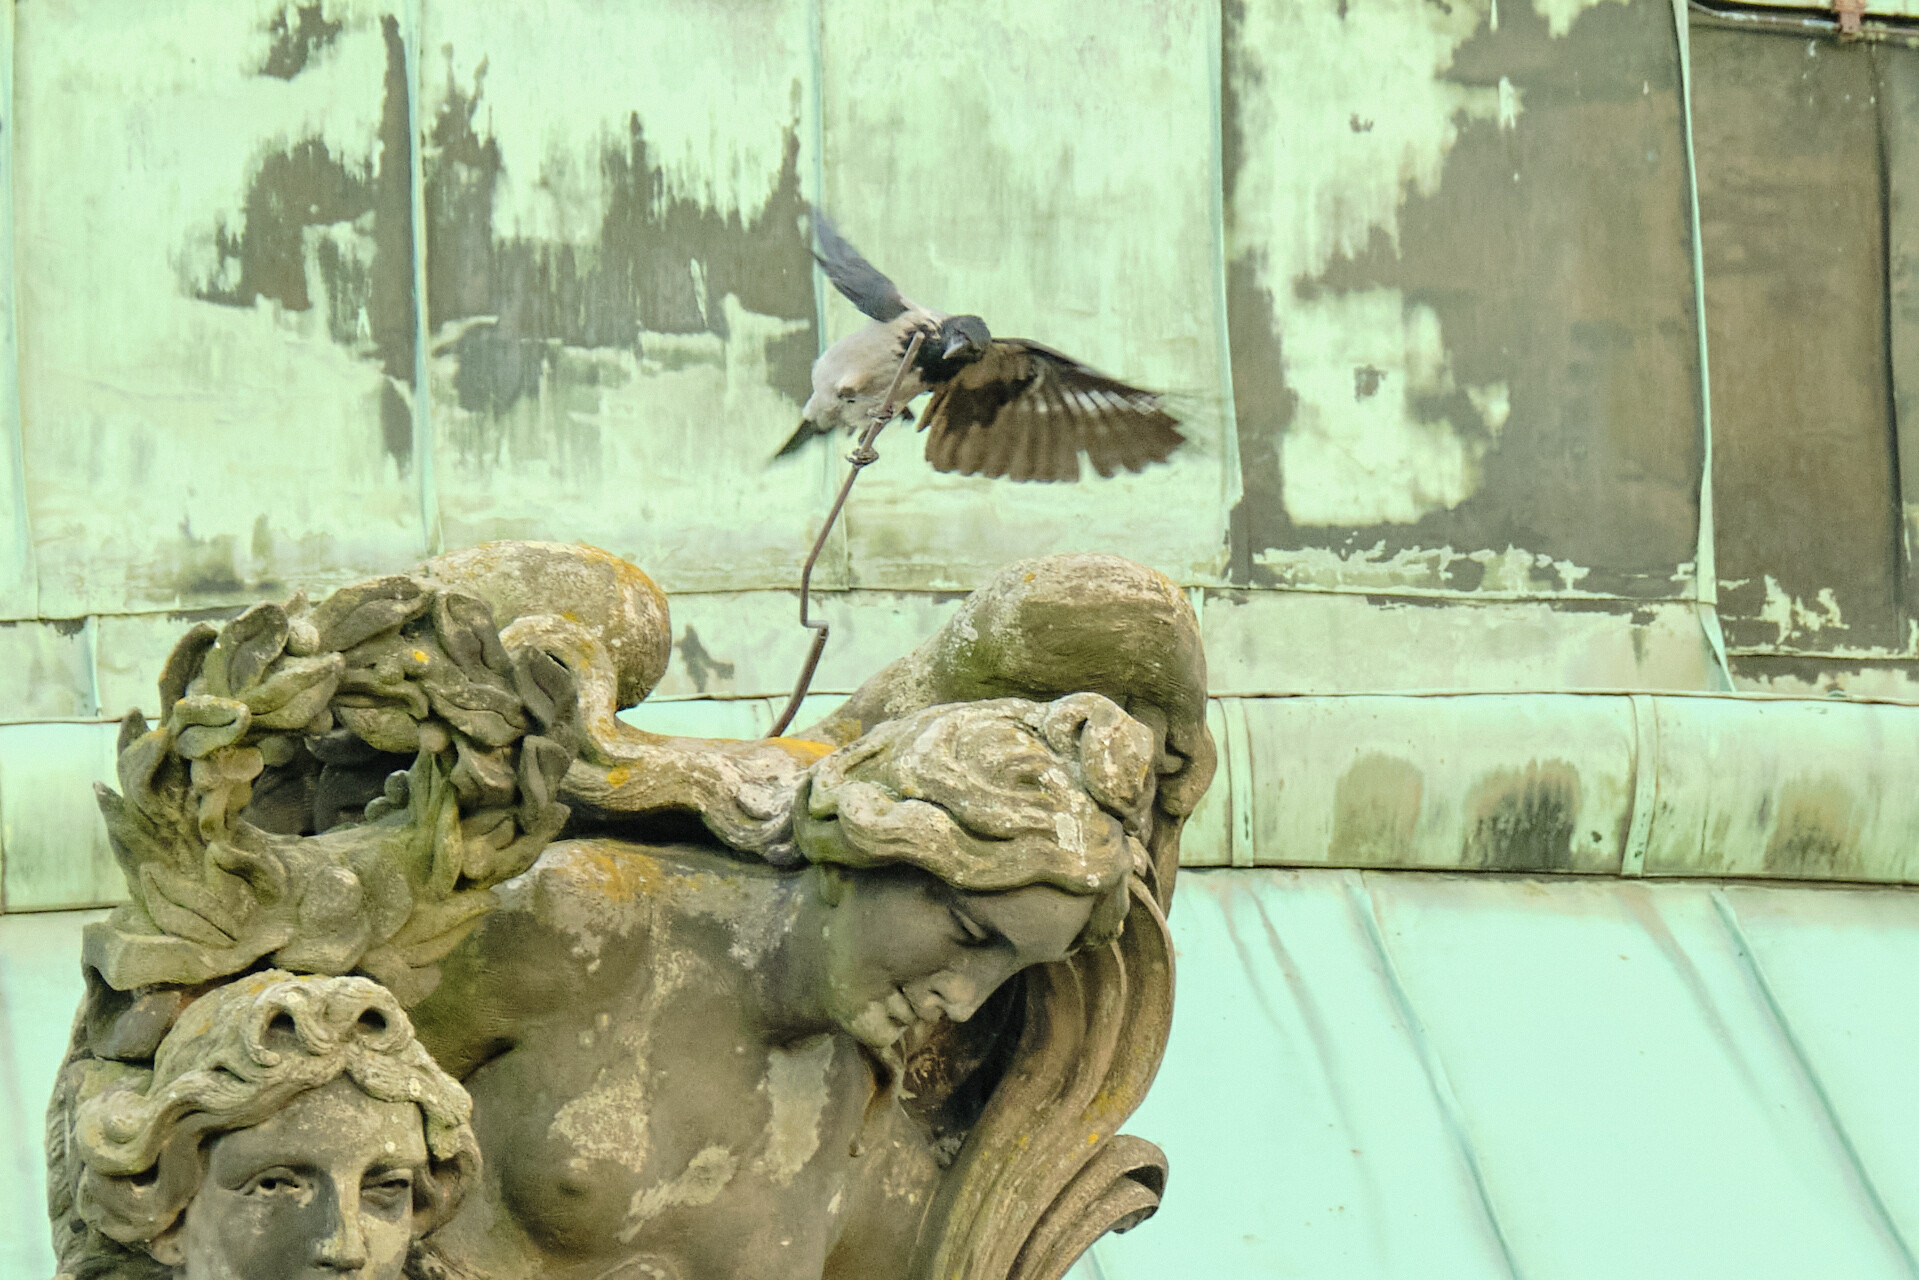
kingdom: Animalia
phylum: Chordata
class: Aves
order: Passeriformes
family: Corvidae
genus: Corvus
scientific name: Corvus cornix
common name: Hooded crow
